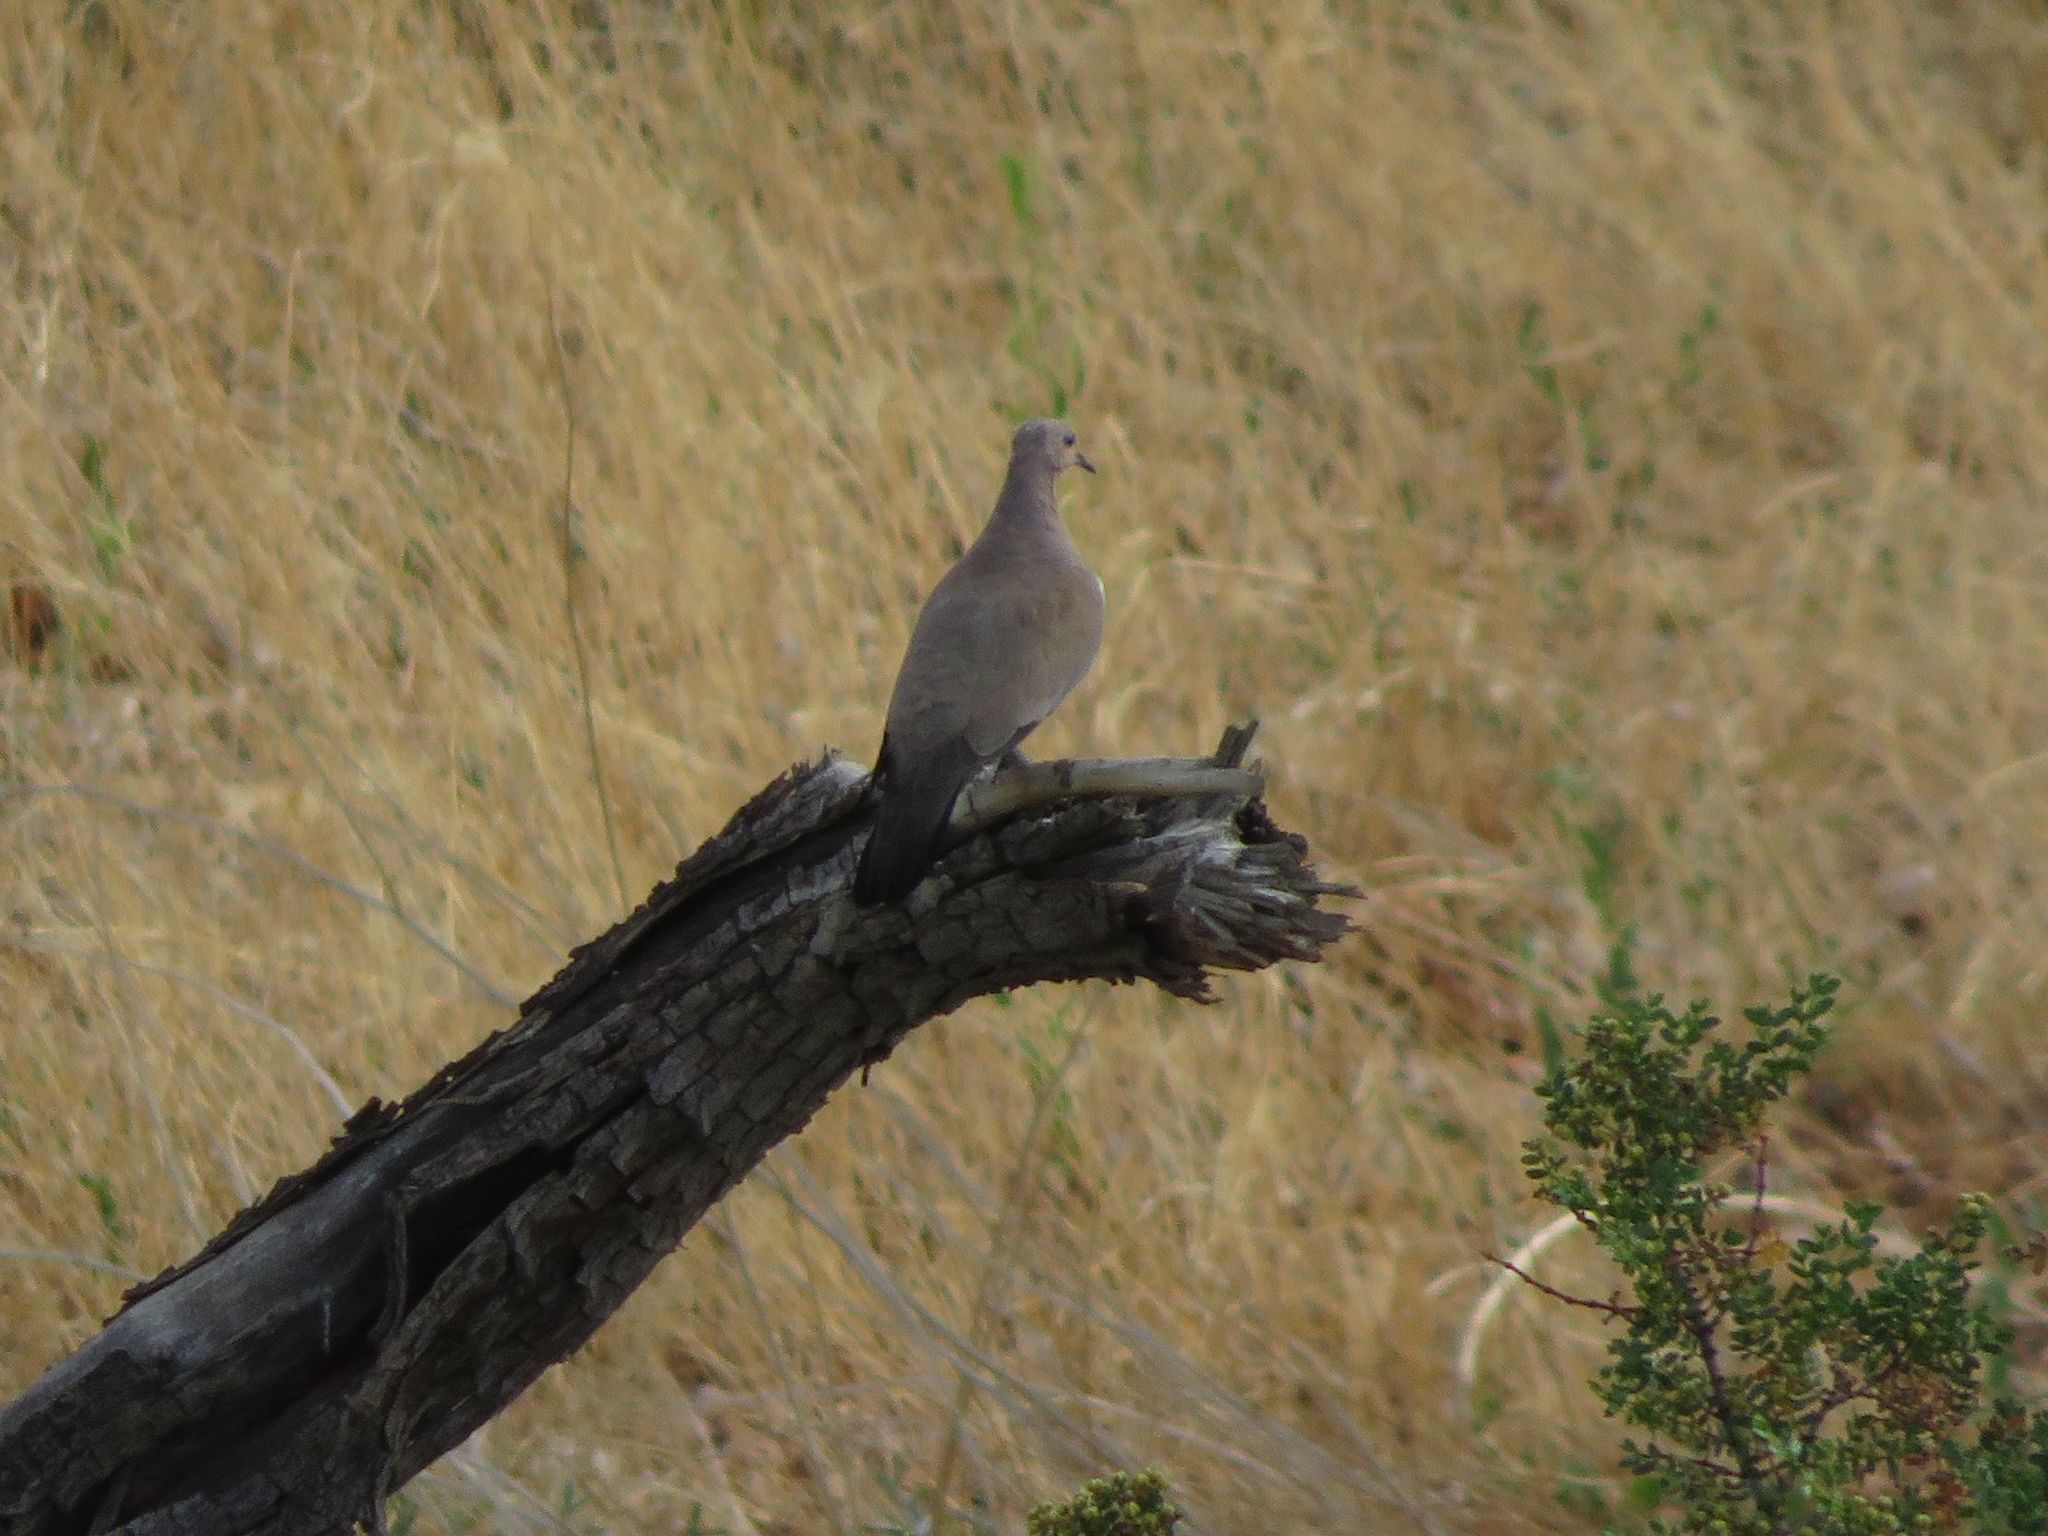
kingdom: Animalia
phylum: Chordata
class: Aves
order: Columbiformes
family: Columbidae
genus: Metriopelia
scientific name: Metriopelia melanoptera
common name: Black-winged ground dove
